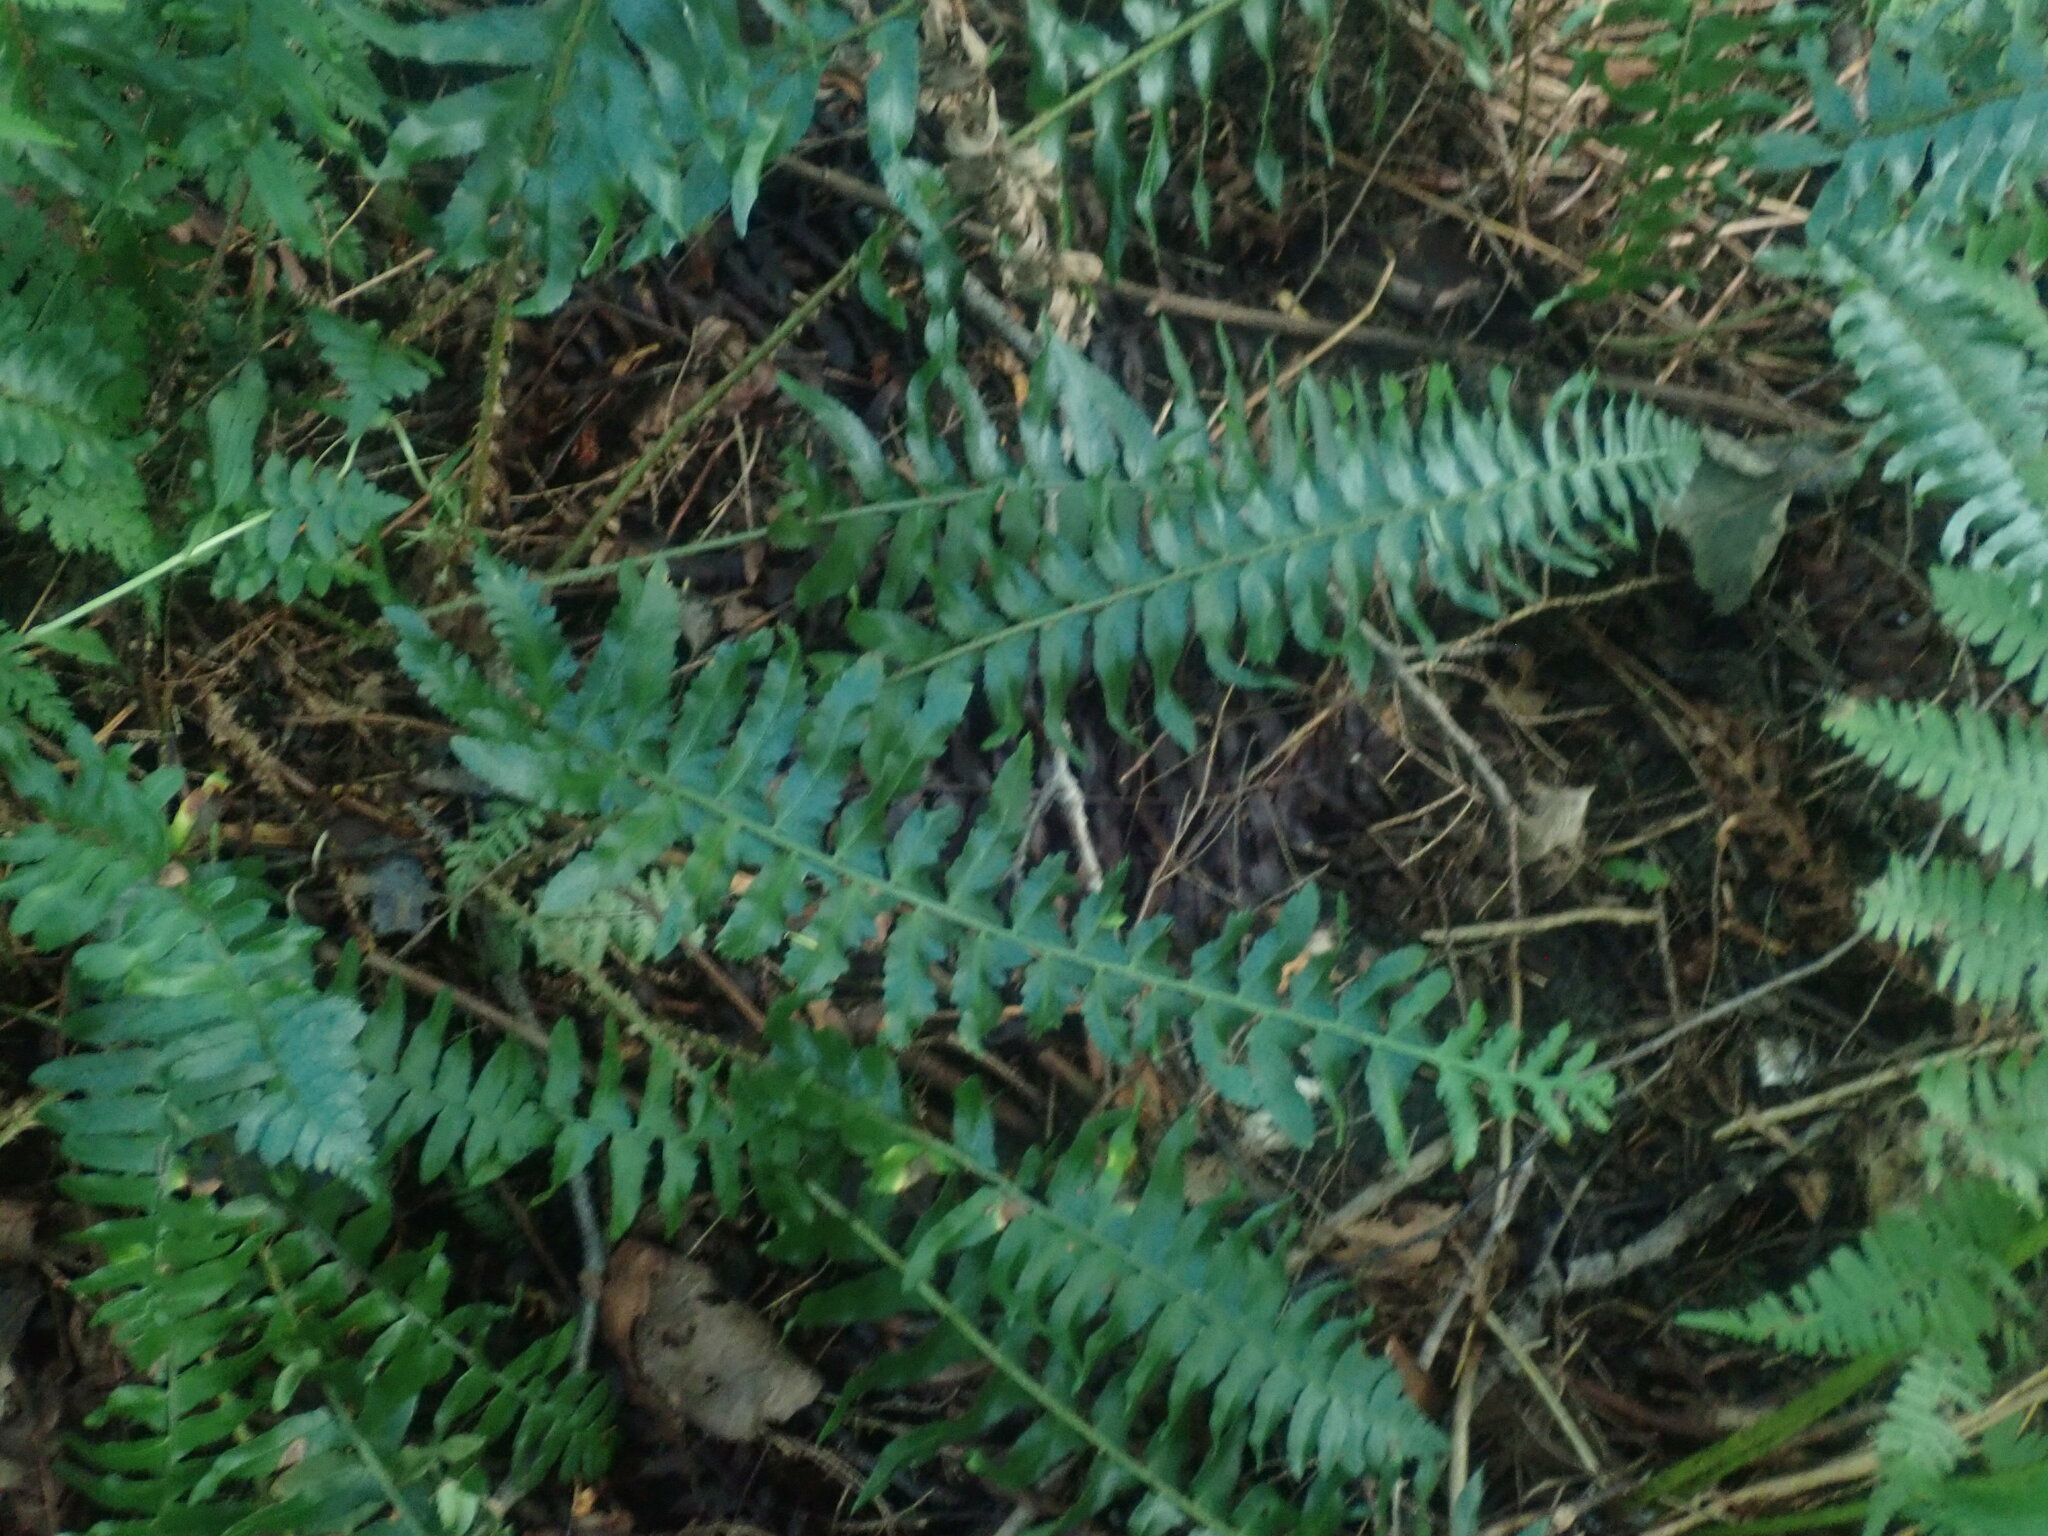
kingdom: Plantae
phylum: Tracheophyta
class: Polypodiopsida
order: Polypodiales
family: Dryopteridaceae
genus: Polystichum
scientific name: Polystichum acrostichoides
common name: Christmas fern
